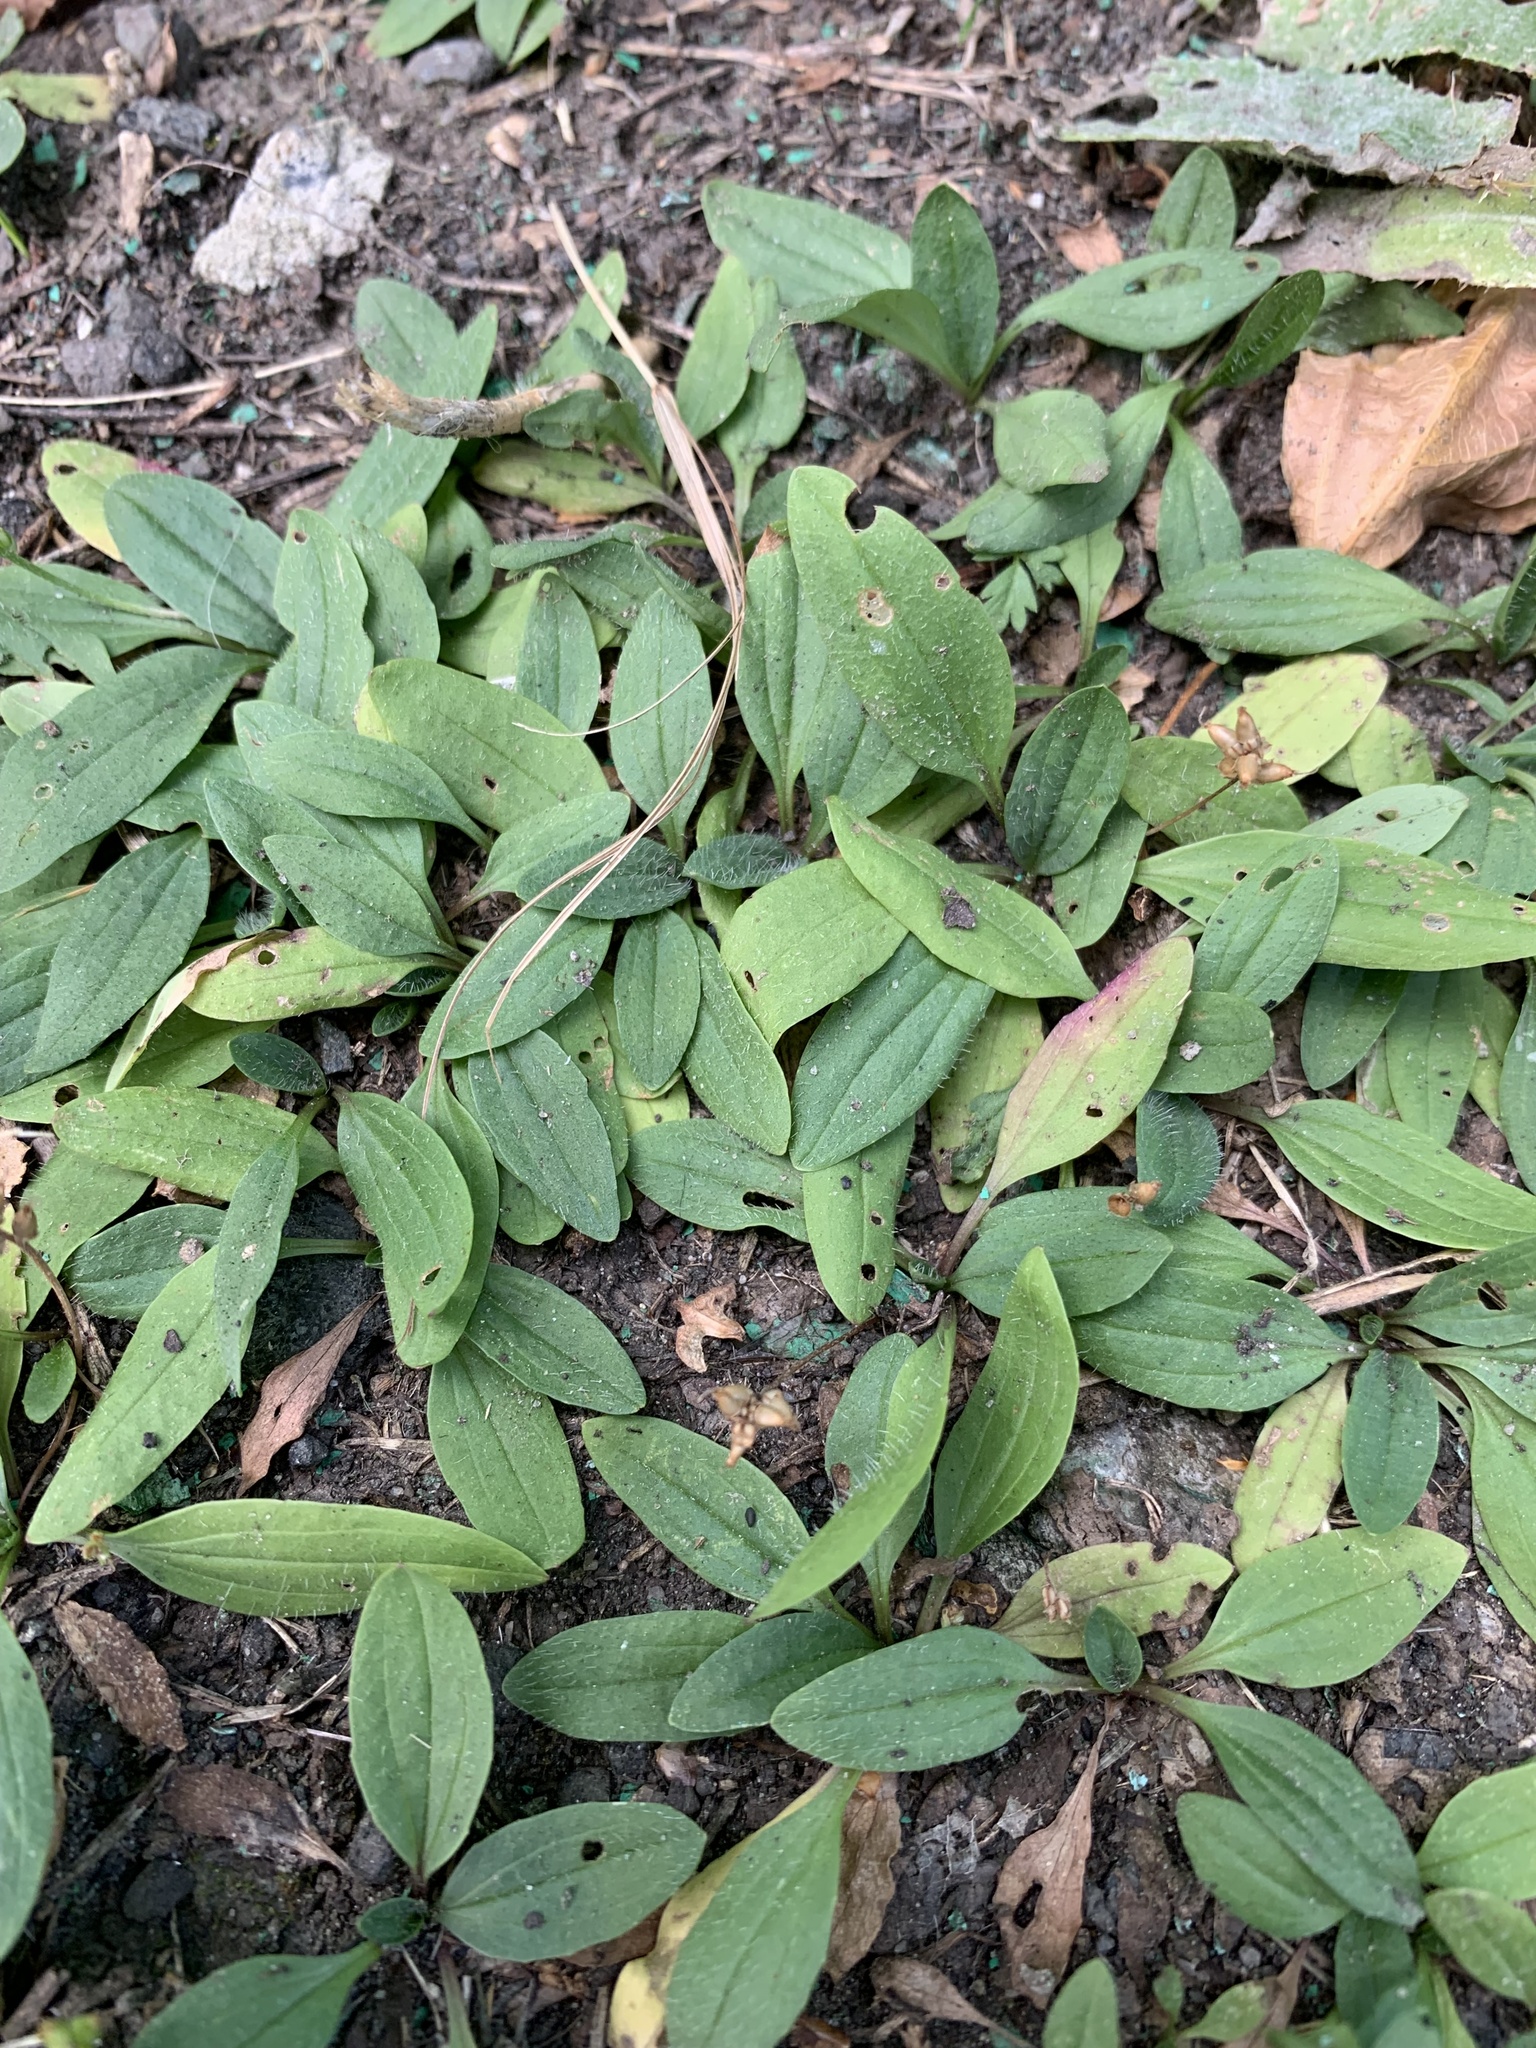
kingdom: Plantae
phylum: Tracheophyta
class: Magnoliopsida
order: Lamiales
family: Plantaginaceae
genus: Plantago
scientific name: Plantago depressa
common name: Depressed plantain
